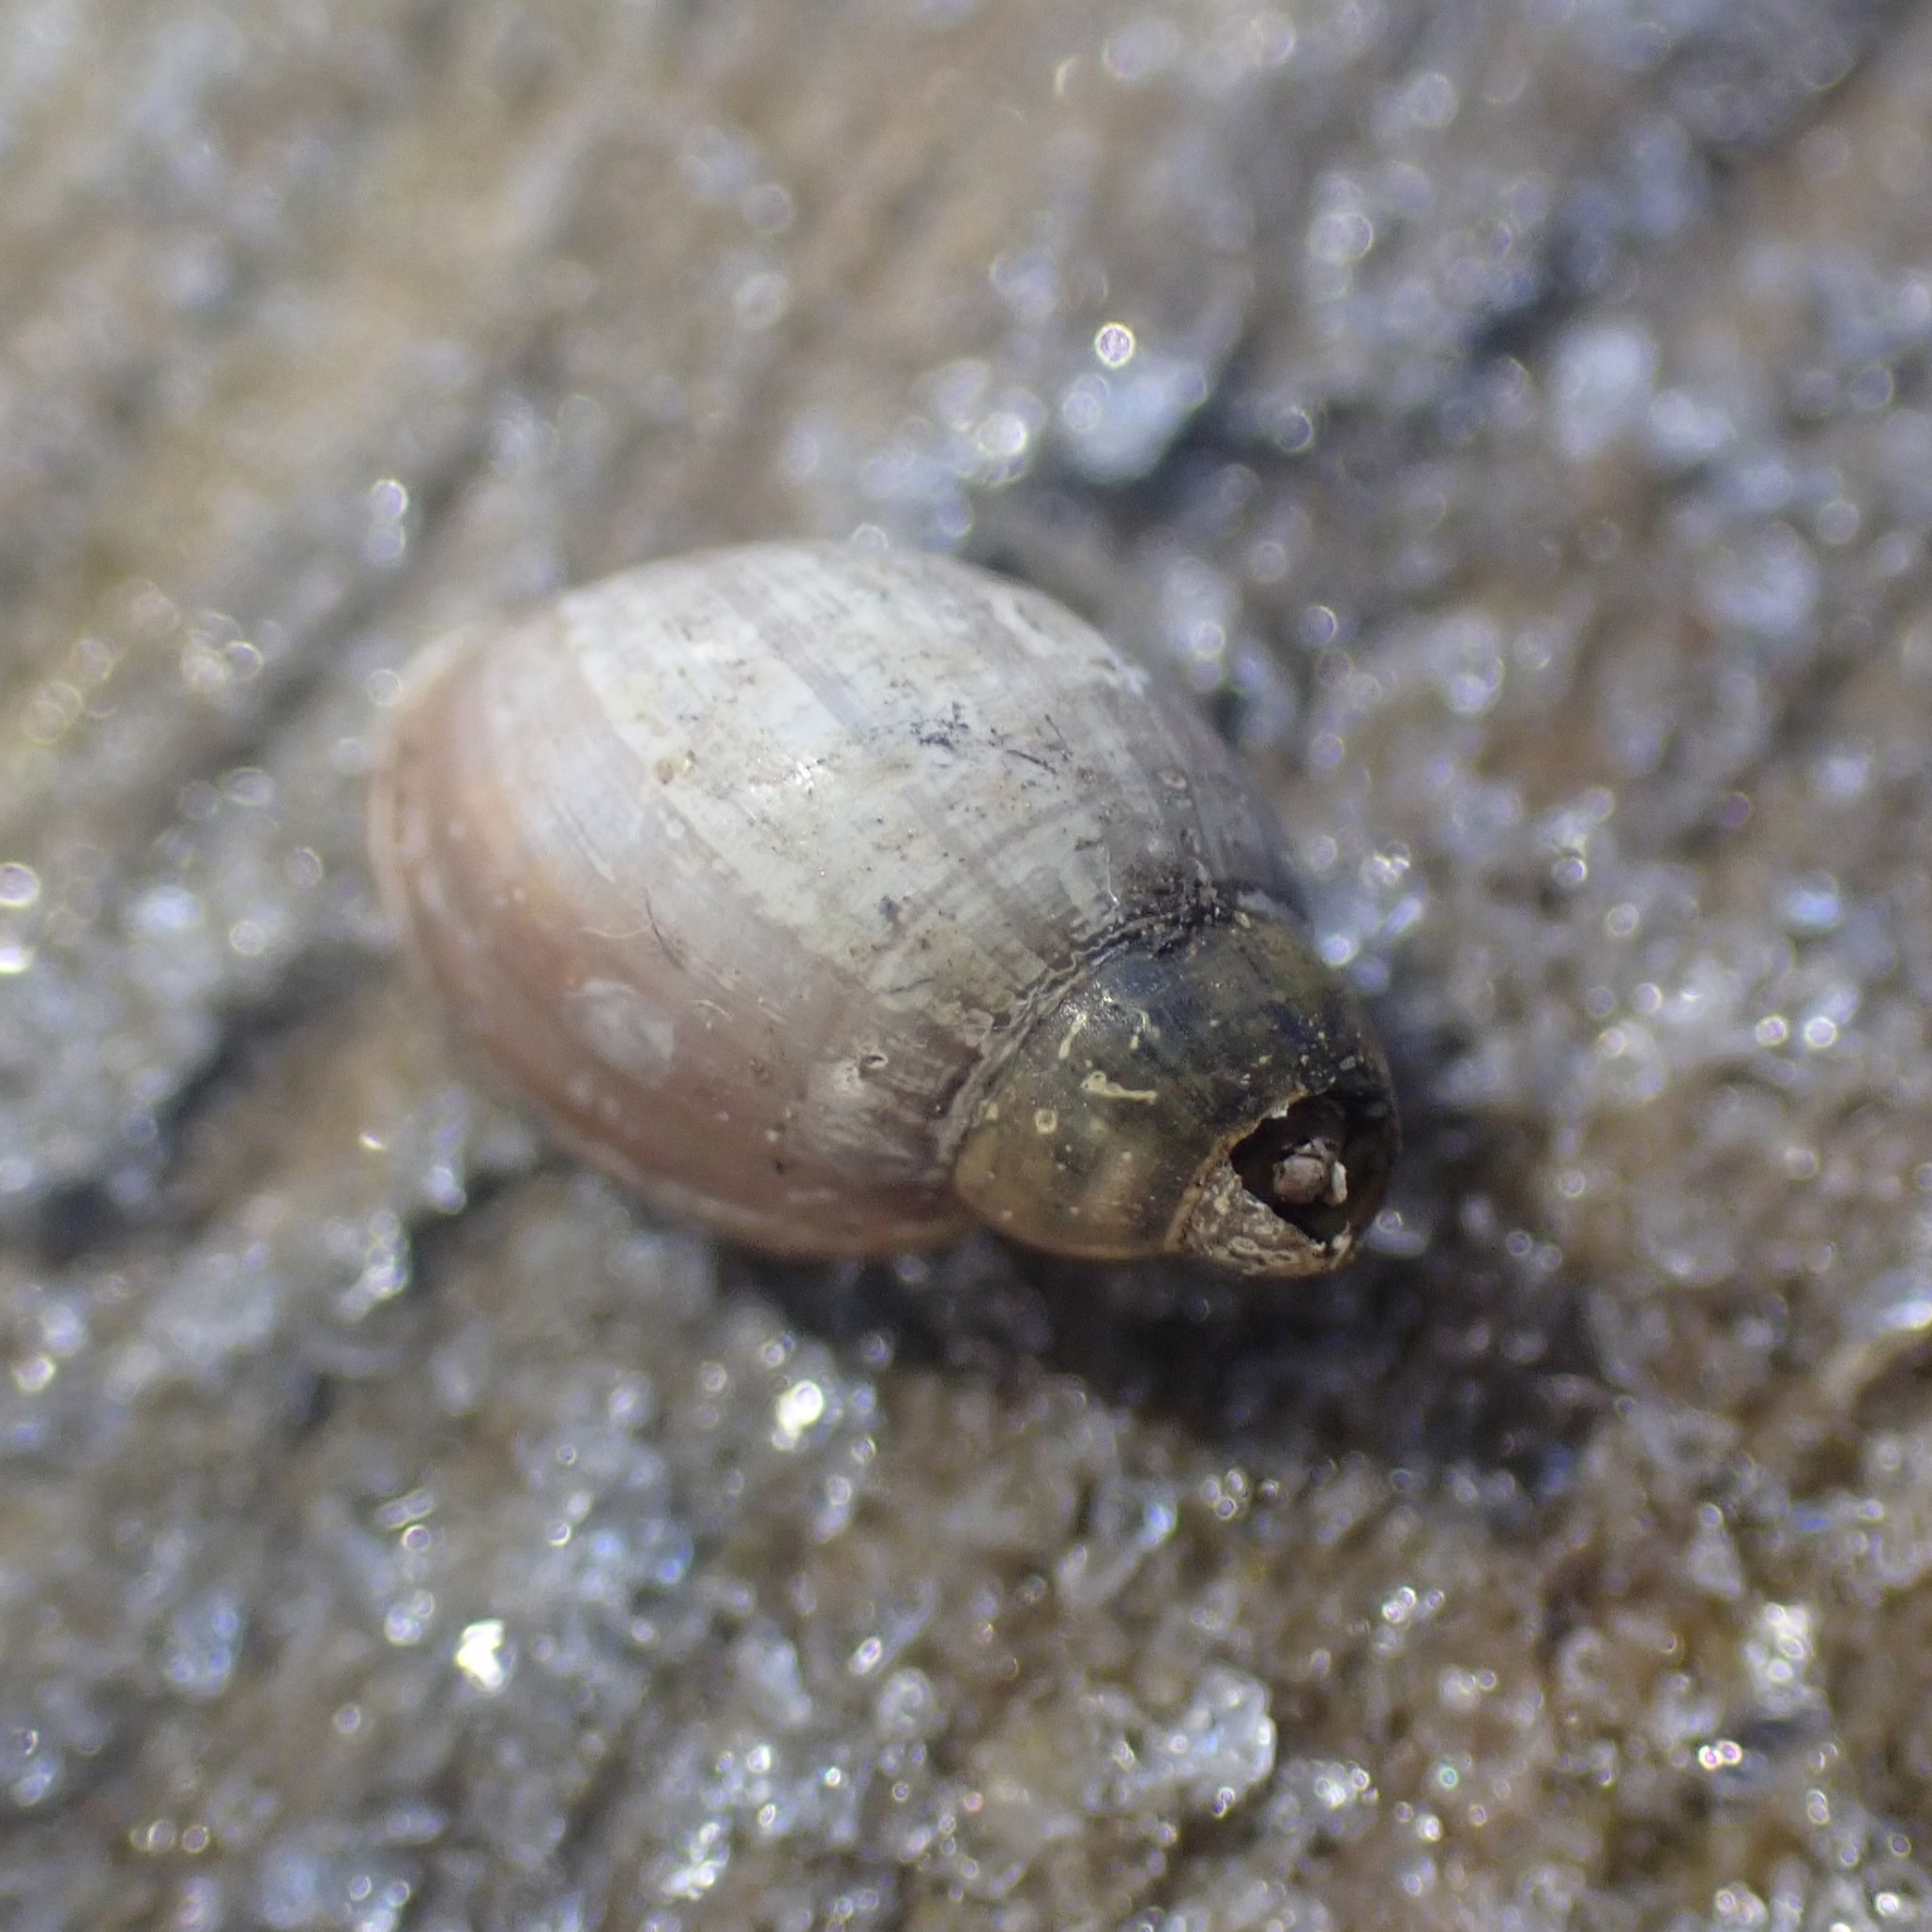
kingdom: Animalia
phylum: Mollusca
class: Gastropoda
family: Physidae
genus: Physella
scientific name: Physella acuta
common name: European physa
